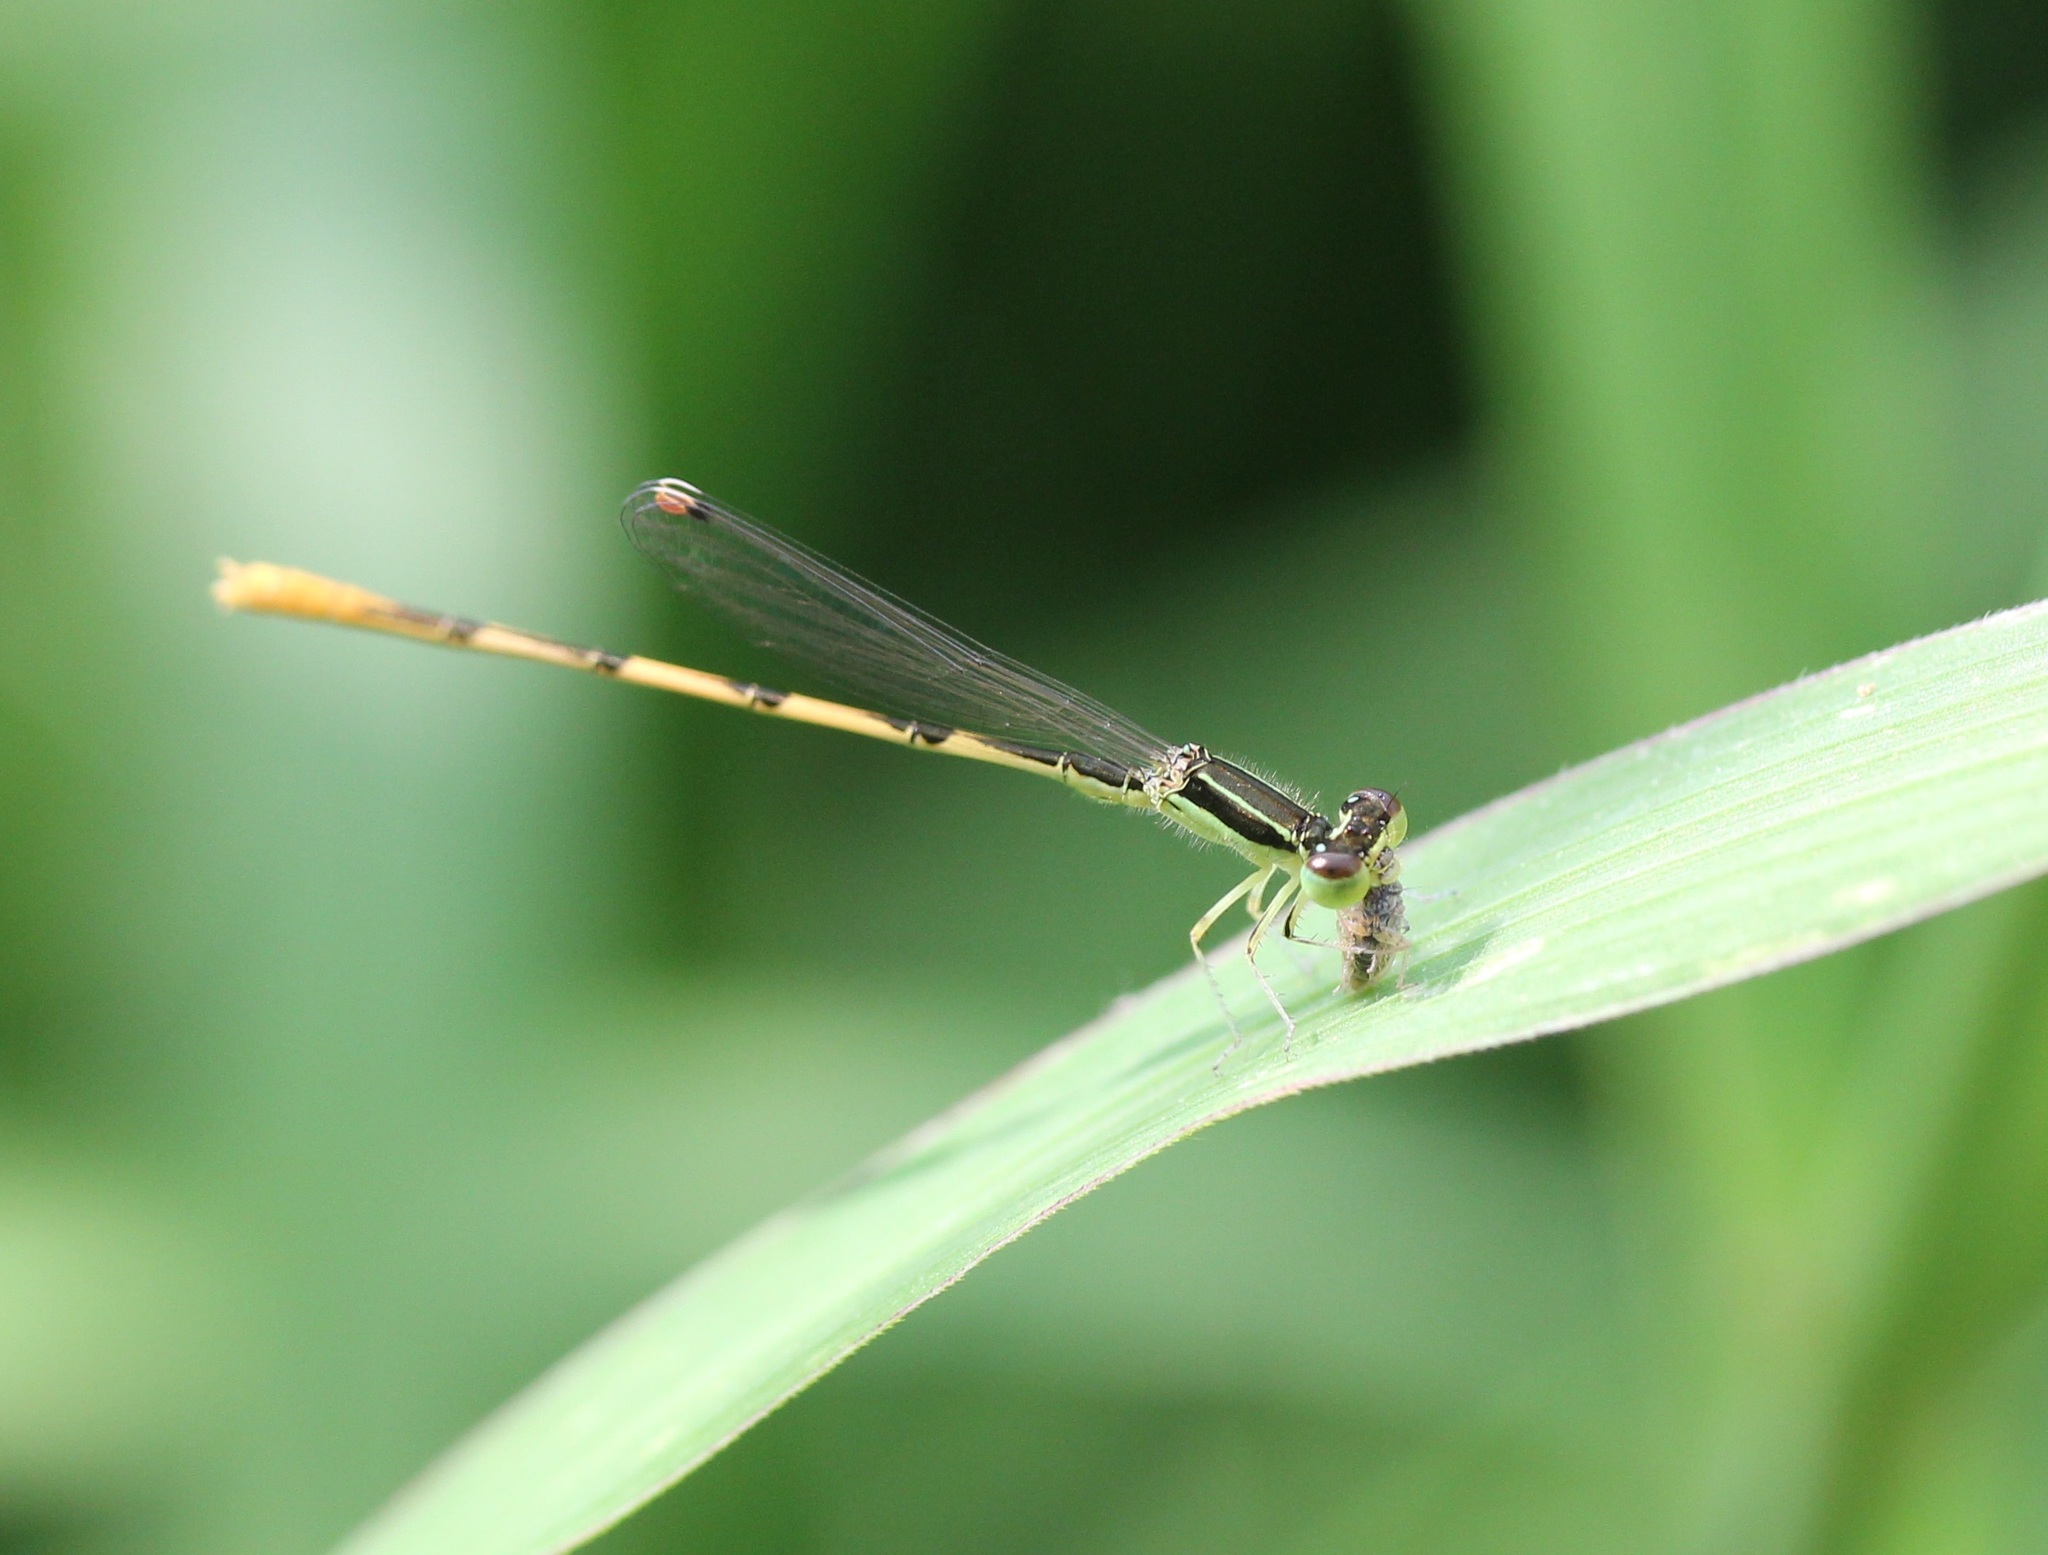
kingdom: Animalia
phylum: Arthropoda
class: Insecta
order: Odonata
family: Coenagrionidae
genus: Ischnura
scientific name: Ischnura hastata
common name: Citrine forktail
